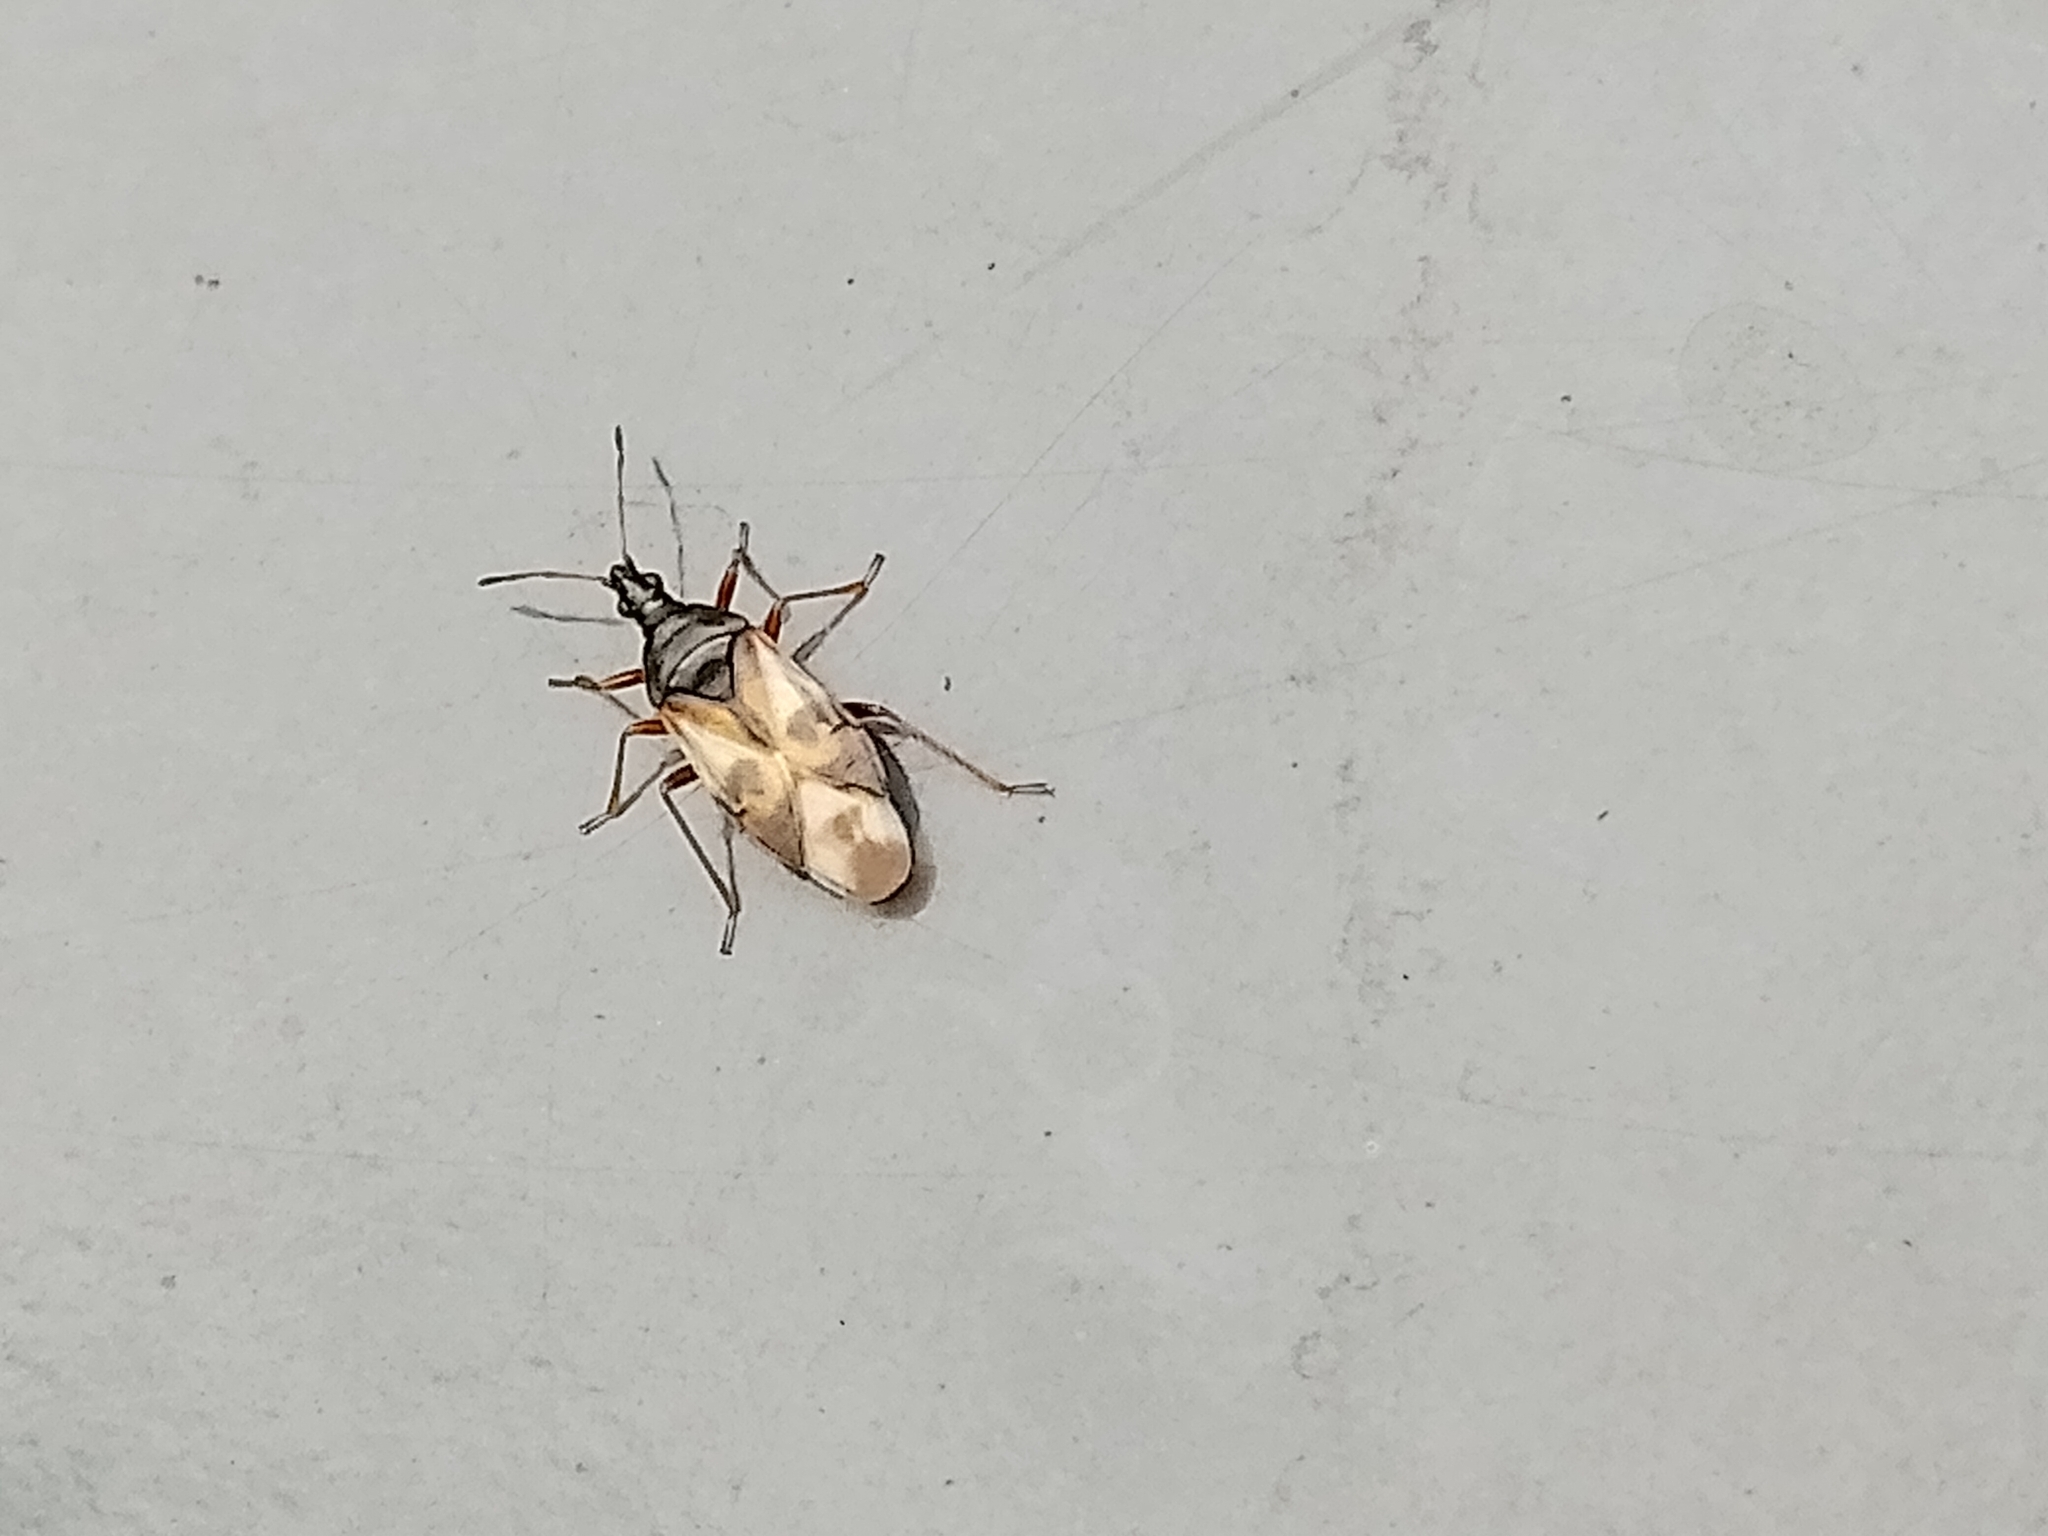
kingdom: Animalia
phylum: Arthropoda
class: Insecta
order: Hemiptera
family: Anthocoridae
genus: Anthocoris
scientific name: Anthocoris nemorum
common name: Minute pirate bug
